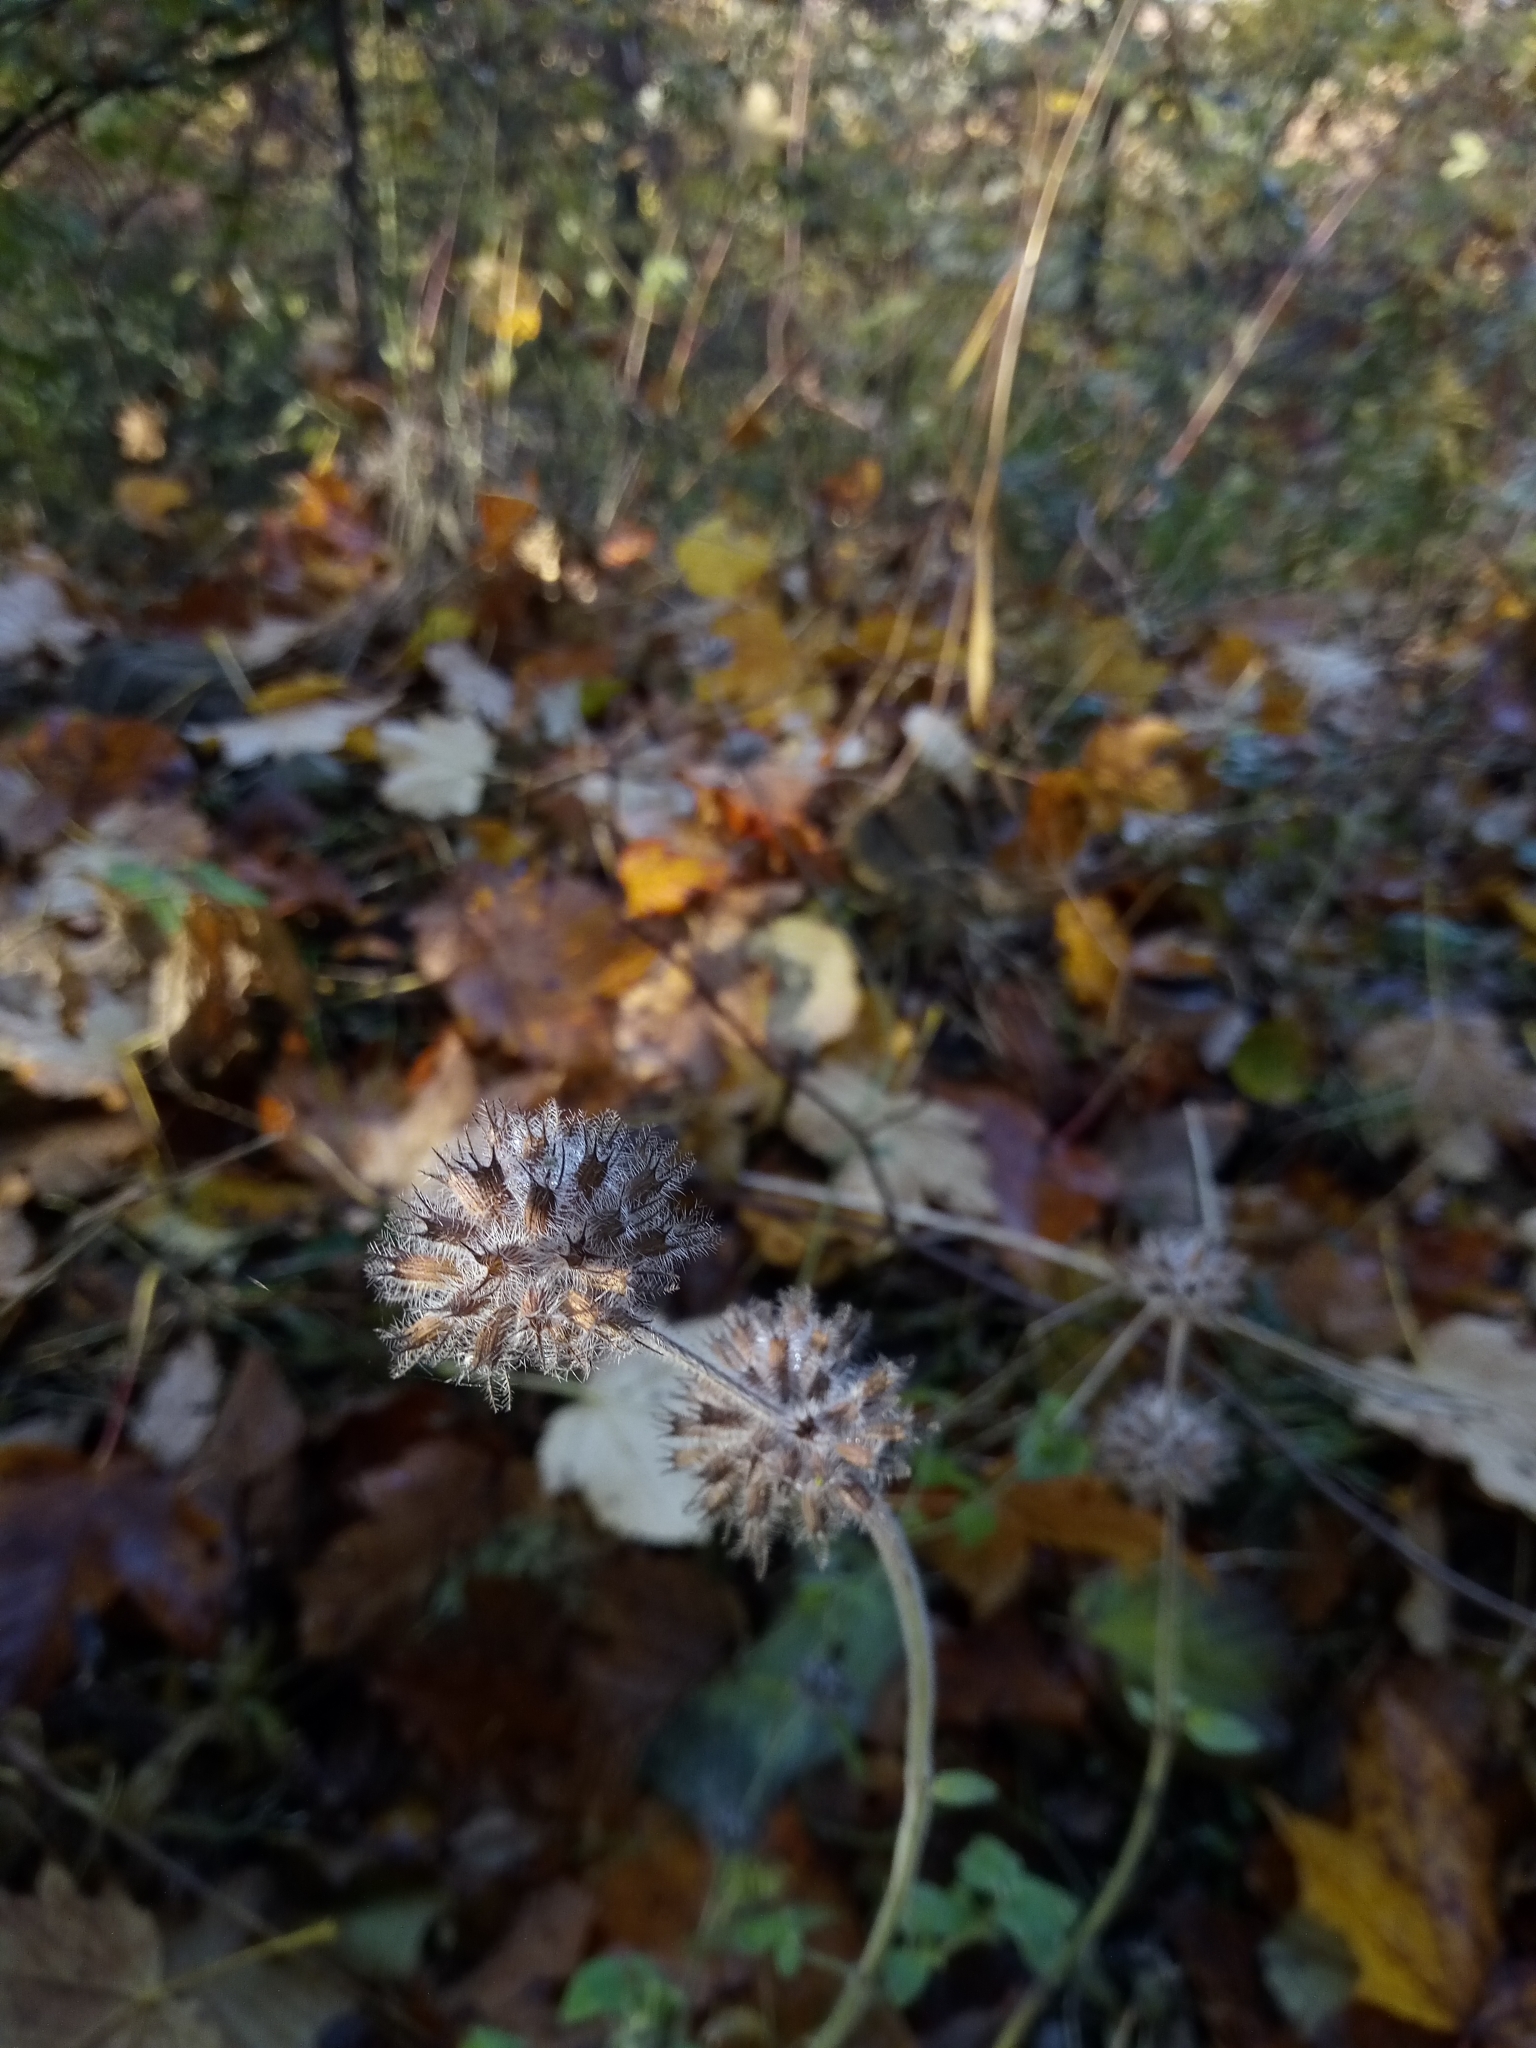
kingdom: Plantae
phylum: Tracheophyta
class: Magnoliopsida
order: Lamiales
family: Lamiaceae
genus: Clinopodium
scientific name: Clinopodium vulgare
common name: Wild basil
